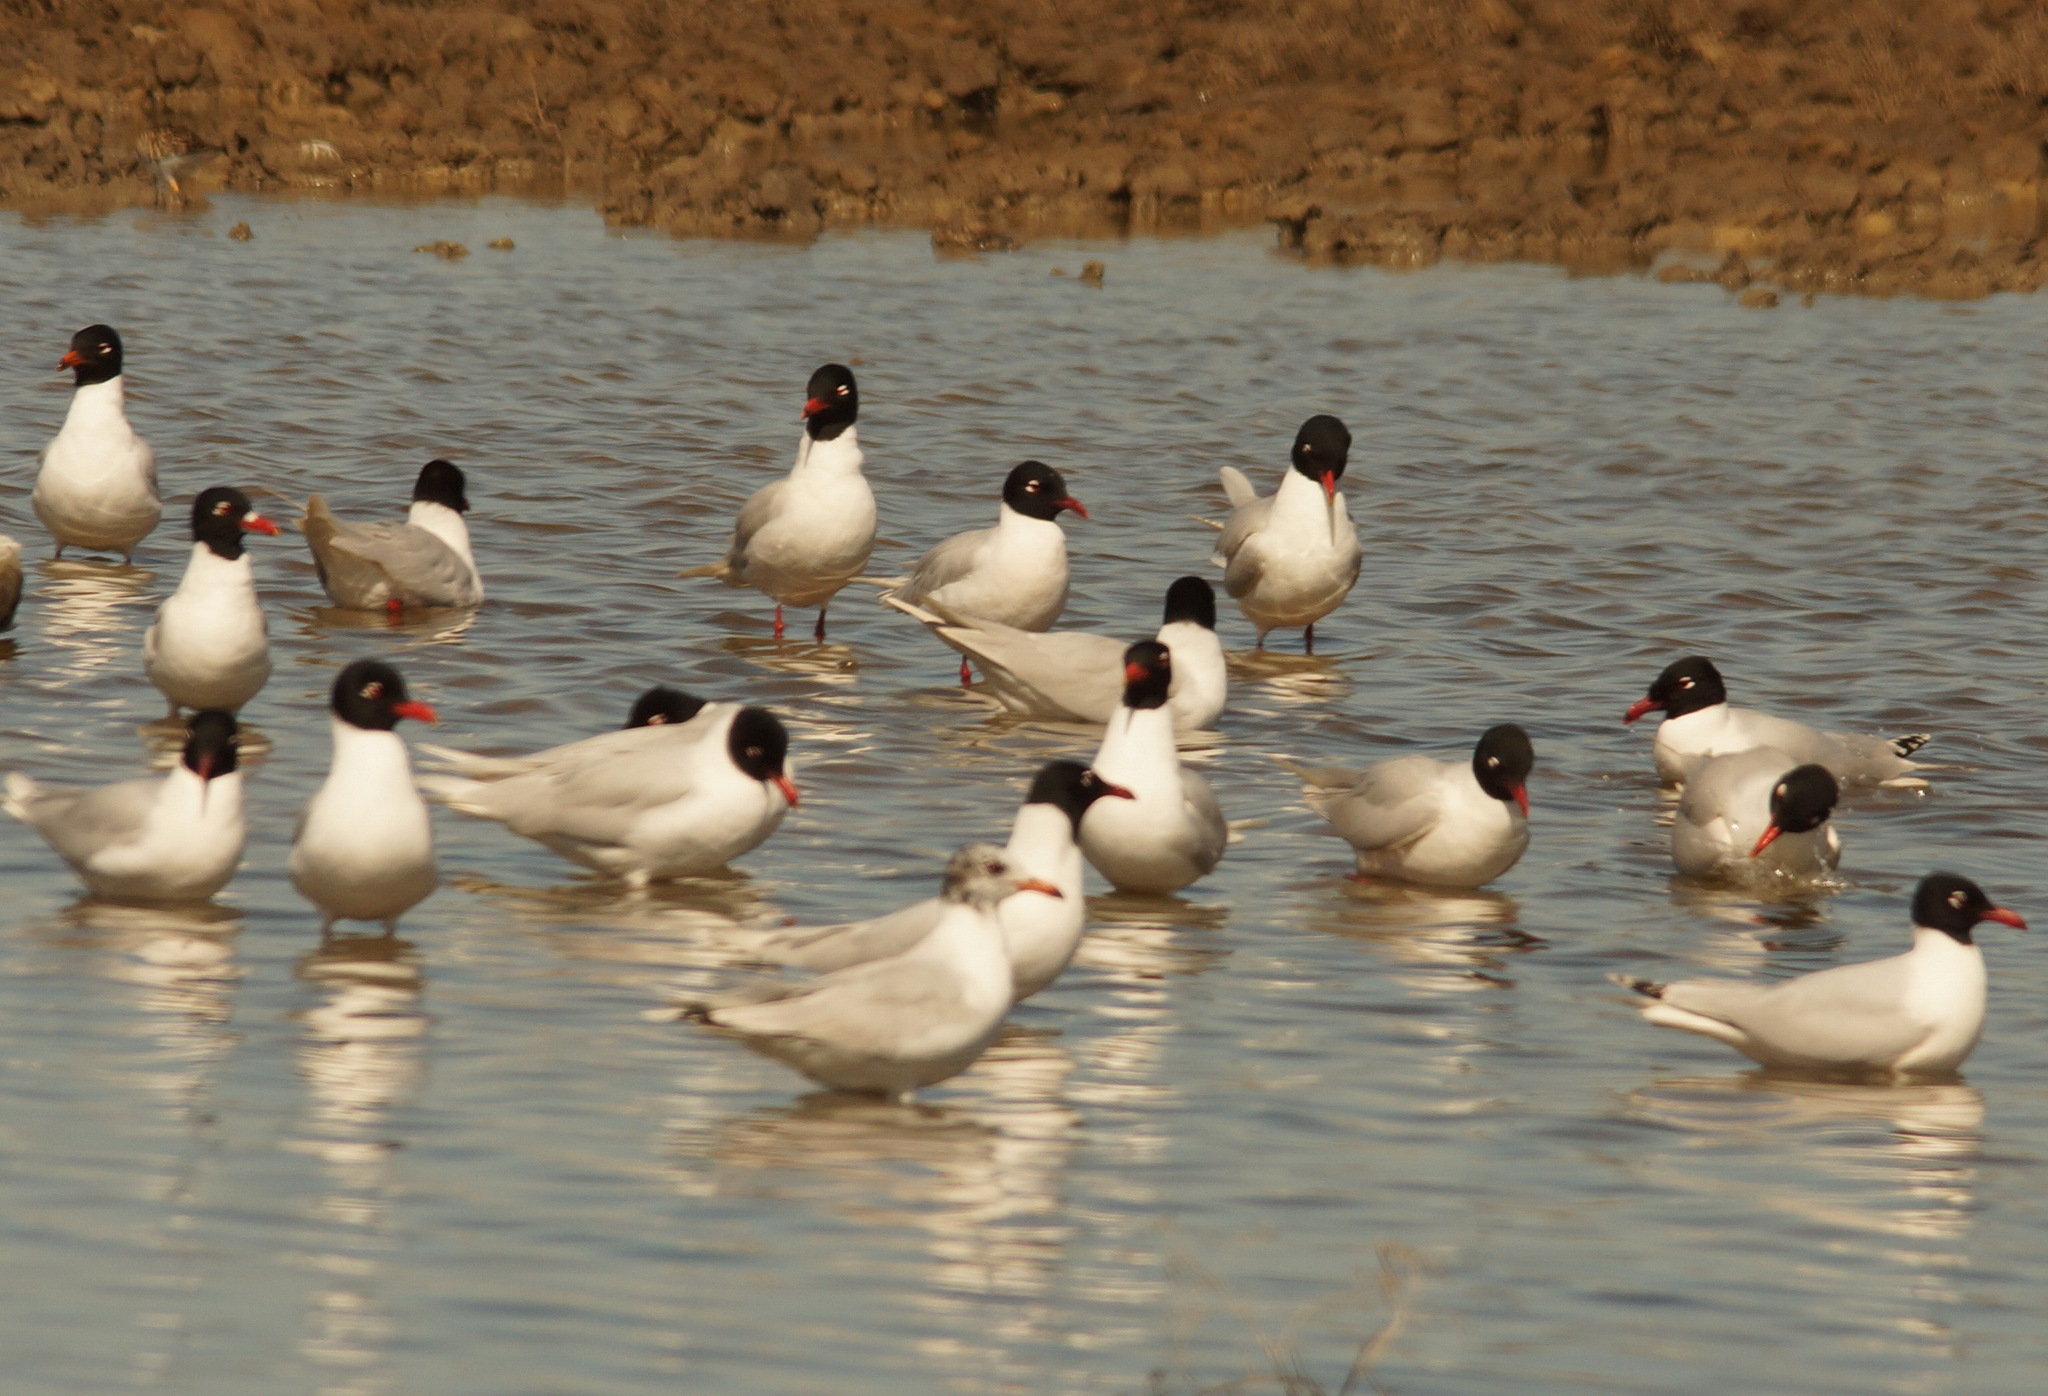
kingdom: Animalia
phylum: Chordata
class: Aves
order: Charadriiformes
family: Laridae
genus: Ichthyaetus
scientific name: Ichthyaetus melanocephalus
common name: Mediterranean gull
